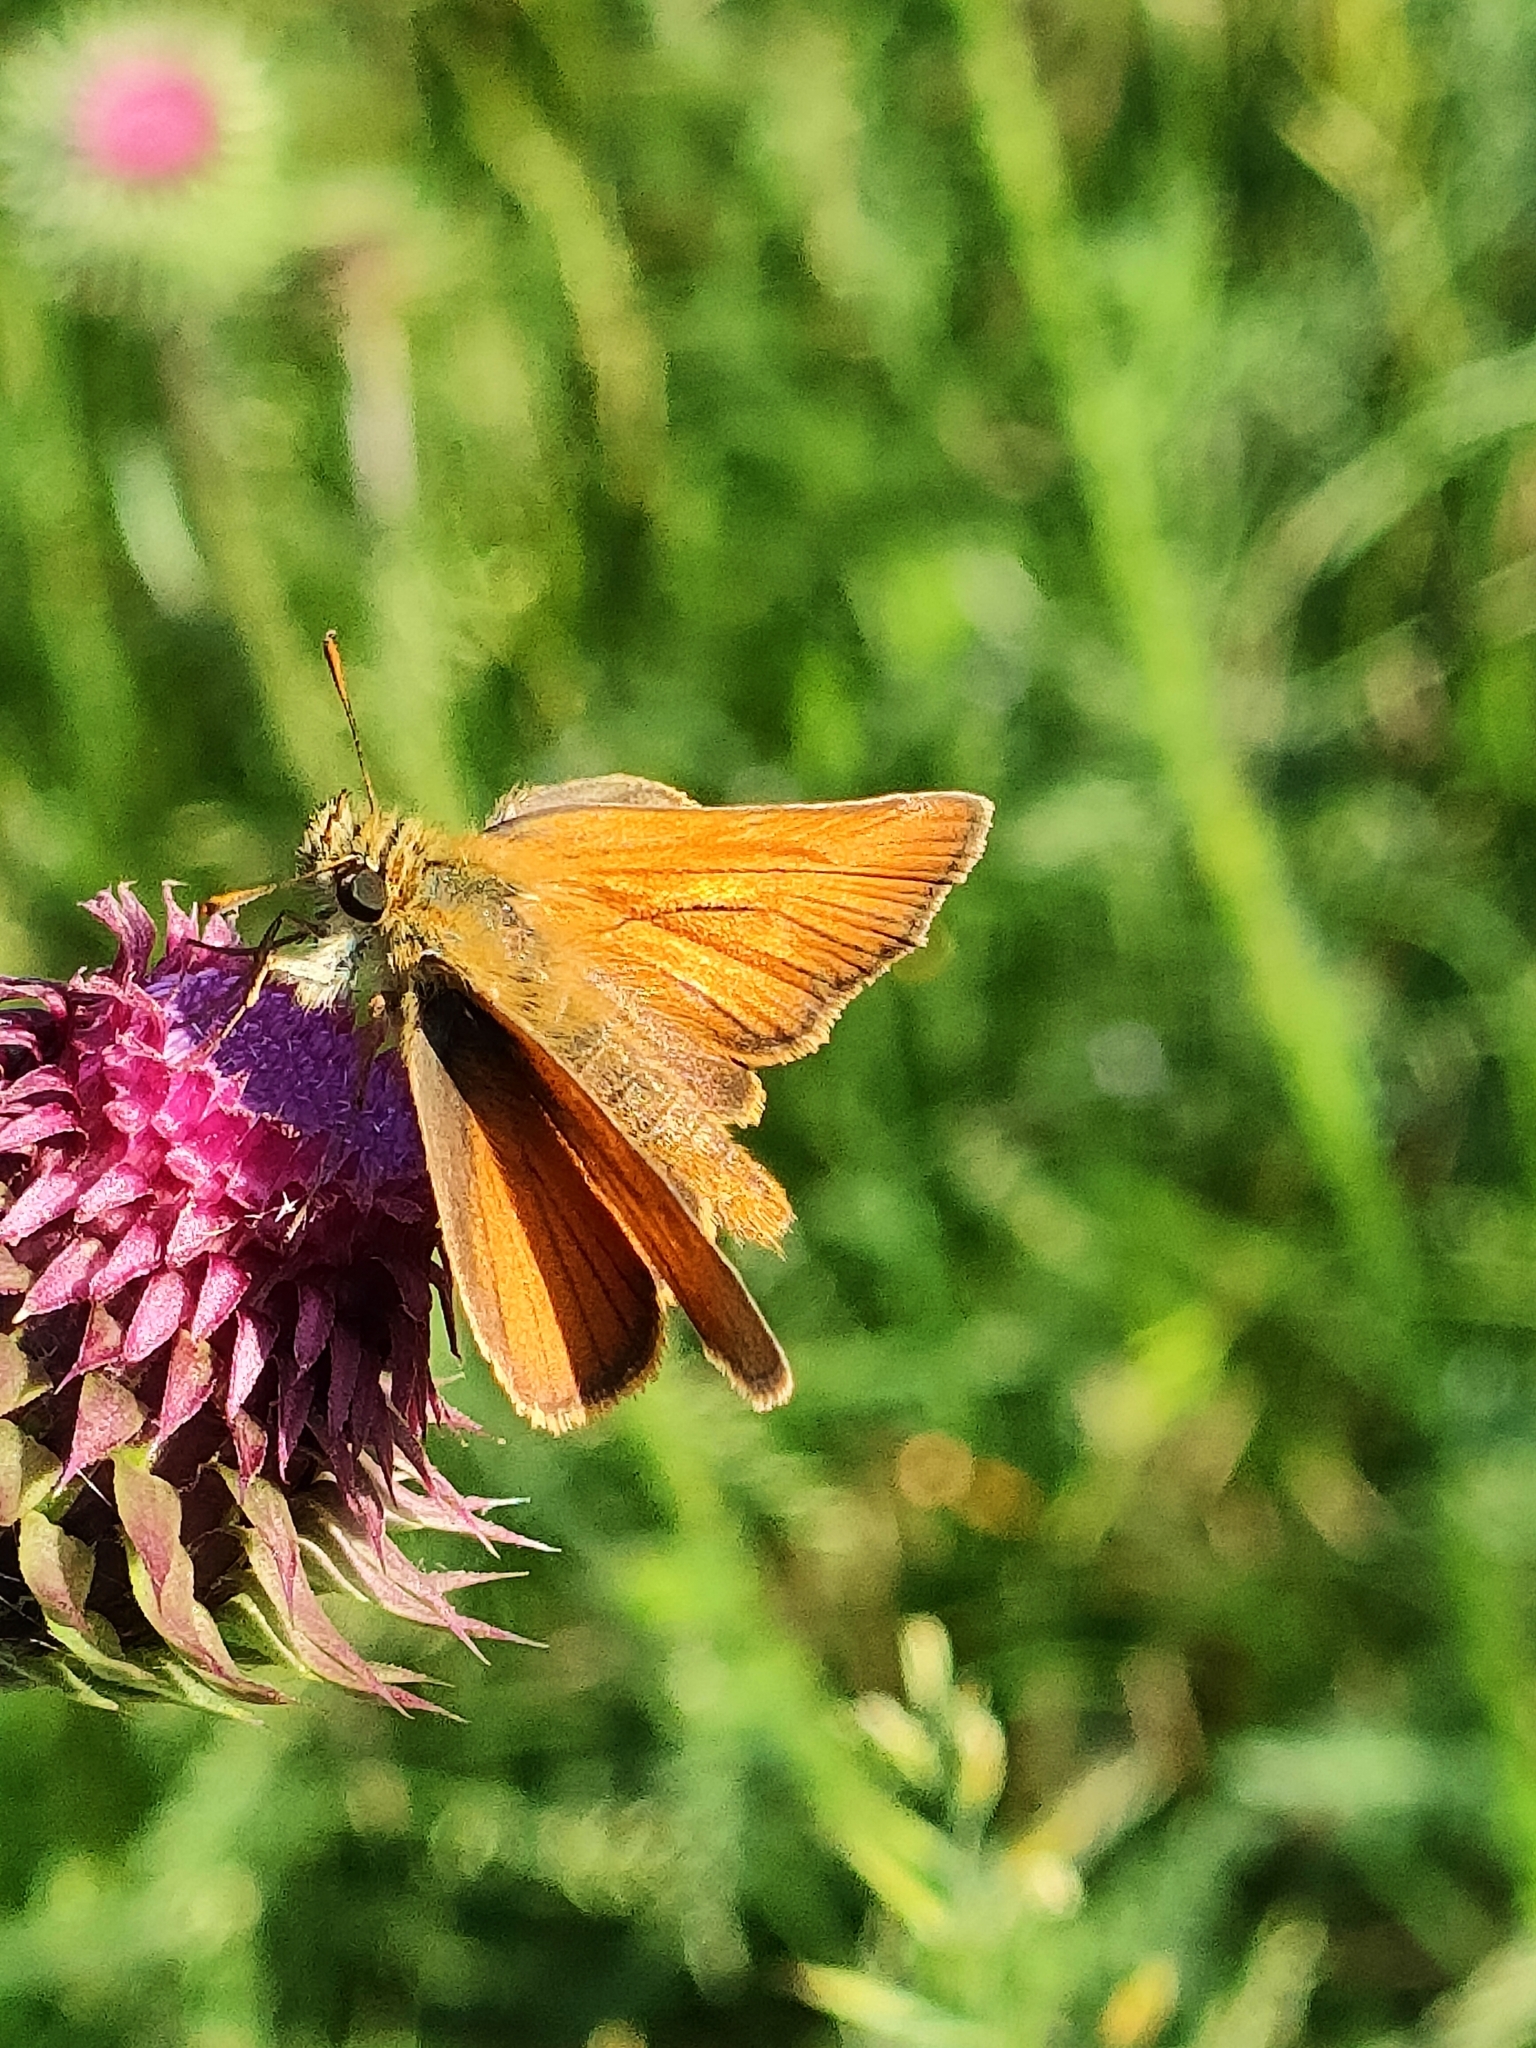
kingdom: Animalia
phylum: Arthropoda
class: Insecta
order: Lepidoptera
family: Hesperiidae
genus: Thymelicus
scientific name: Thymelicus sylvestris
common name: Small skipper
